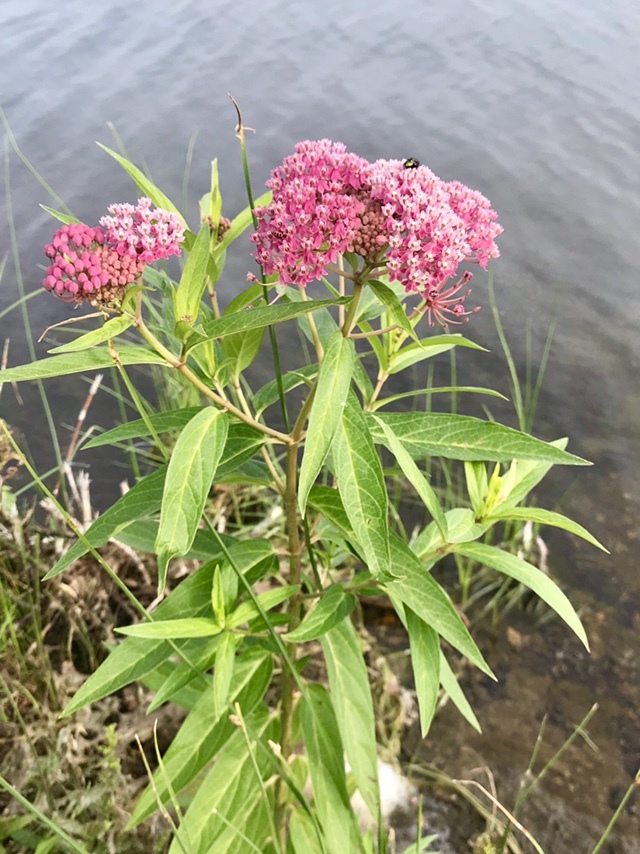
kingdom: Plantae
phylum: Tracheophyta
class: Magnoliopsida
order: Gentianales
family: Apocynaceae
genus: Asclepias
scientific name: Asclepias incarnata
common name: Swamp milkweed
